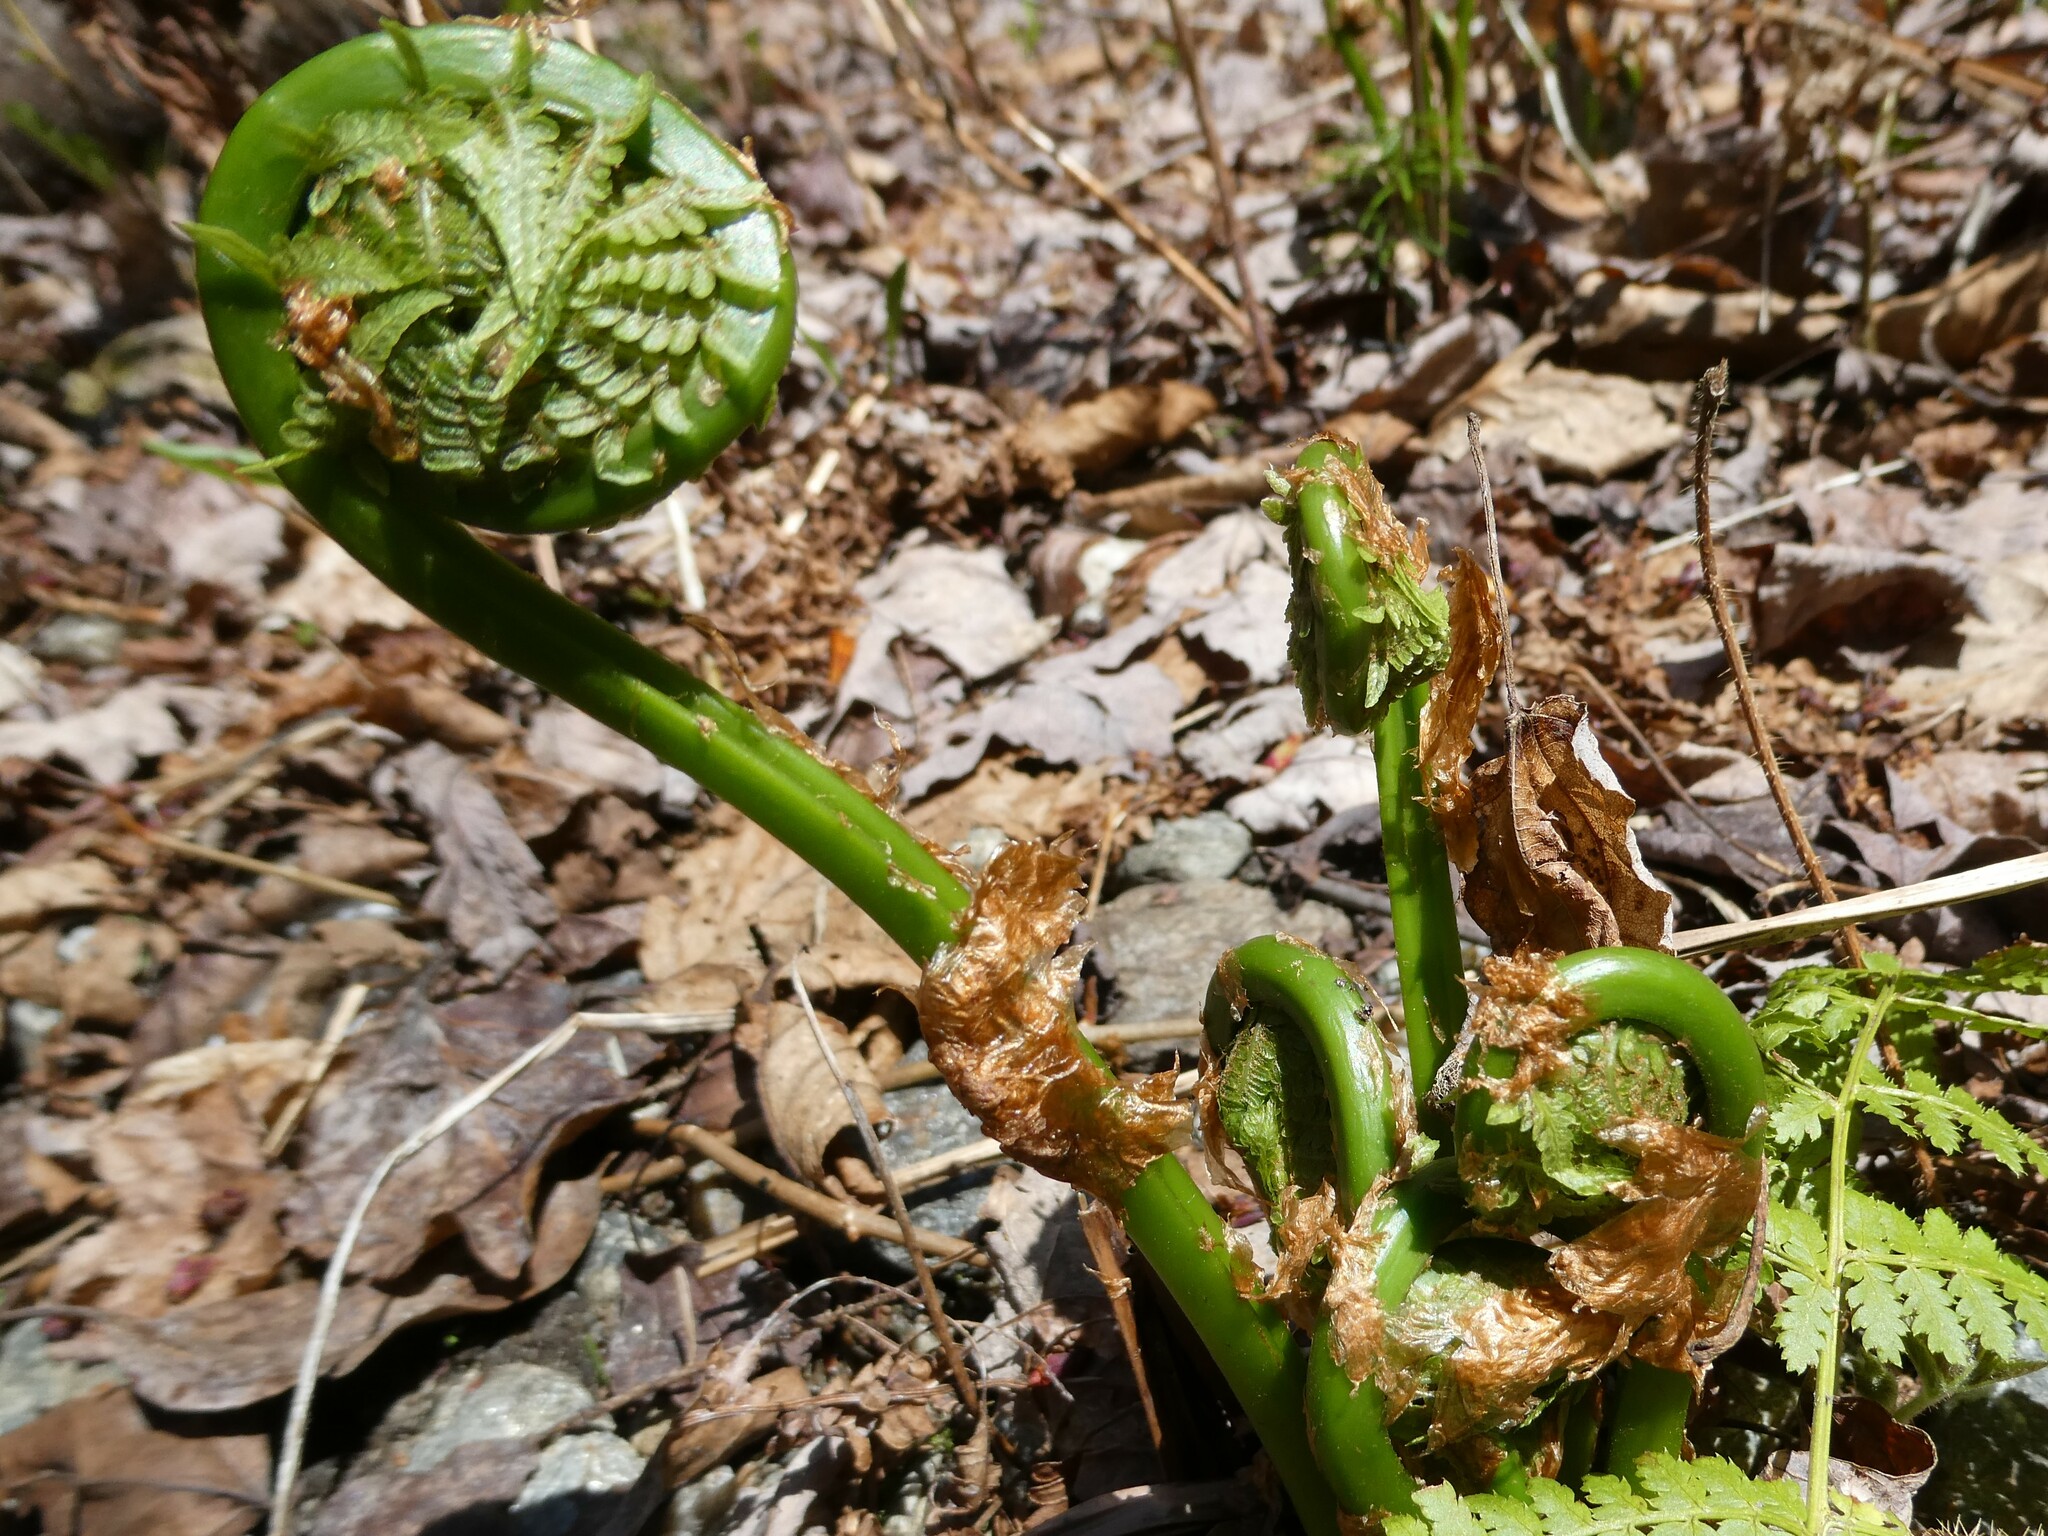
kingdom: Plantae
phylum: Tracheophyta
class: Polypodiopsida
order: Polypodiales
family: Onocleaceae
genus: Matteuccia
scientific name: Matteuccia struthiopteris
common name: Ostrich fern
